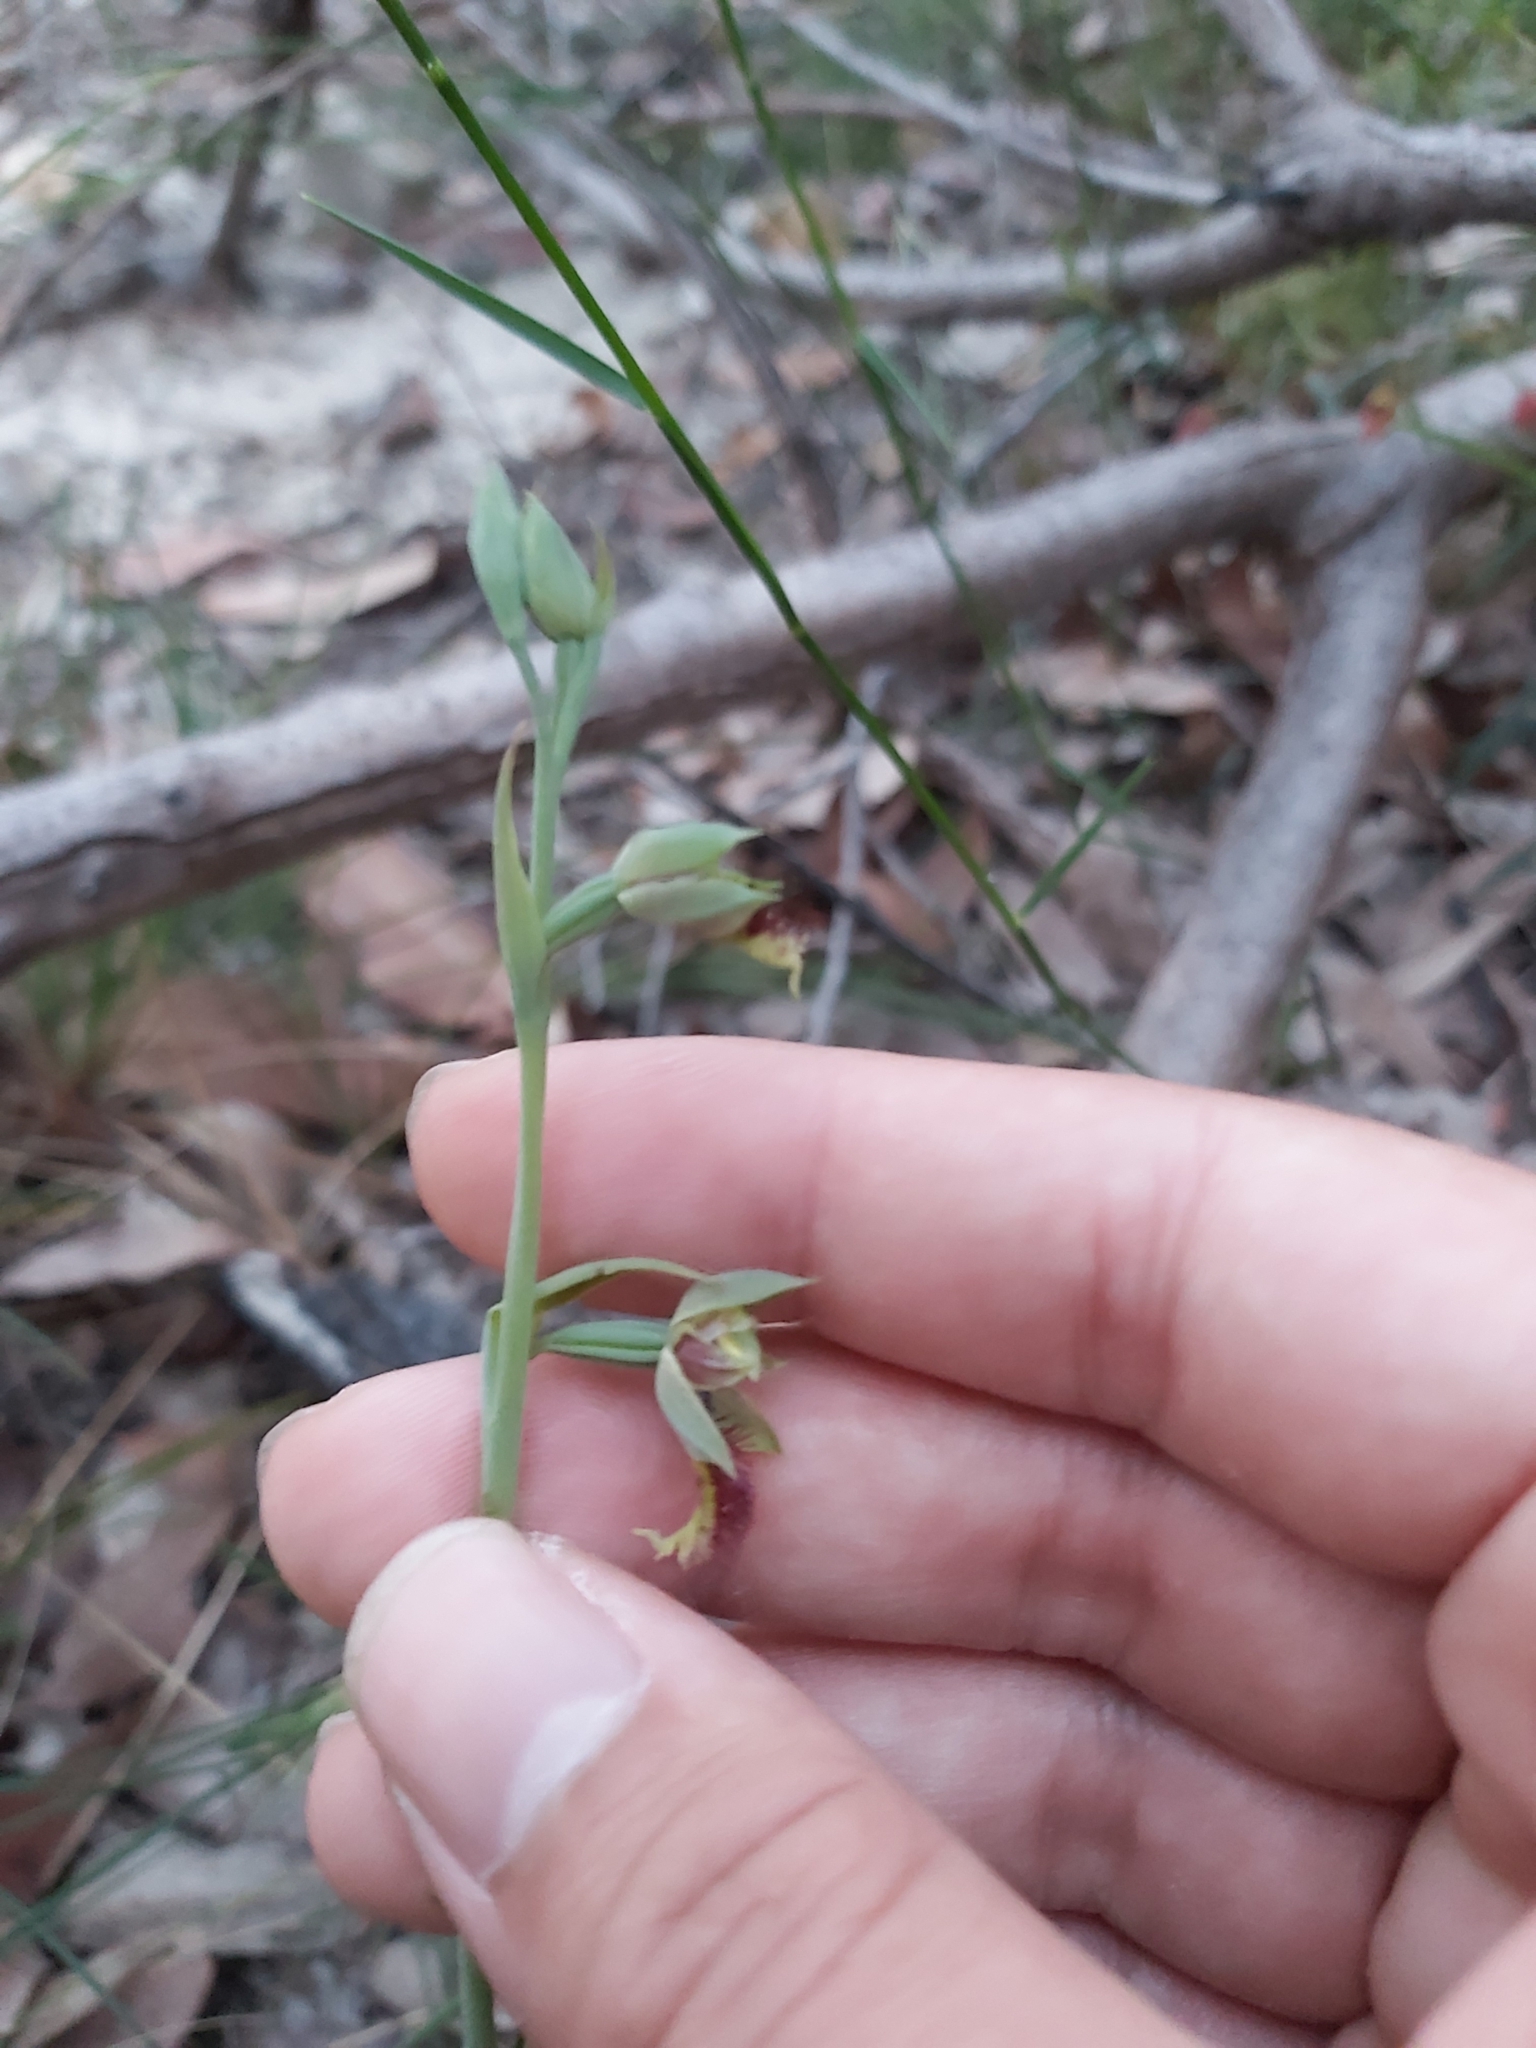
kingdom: Plantae
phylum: Tracheophyta
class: Liliopsida
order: Asparagales
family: Orchidaceae
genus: Calochilus
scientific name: Calochilus campestris
